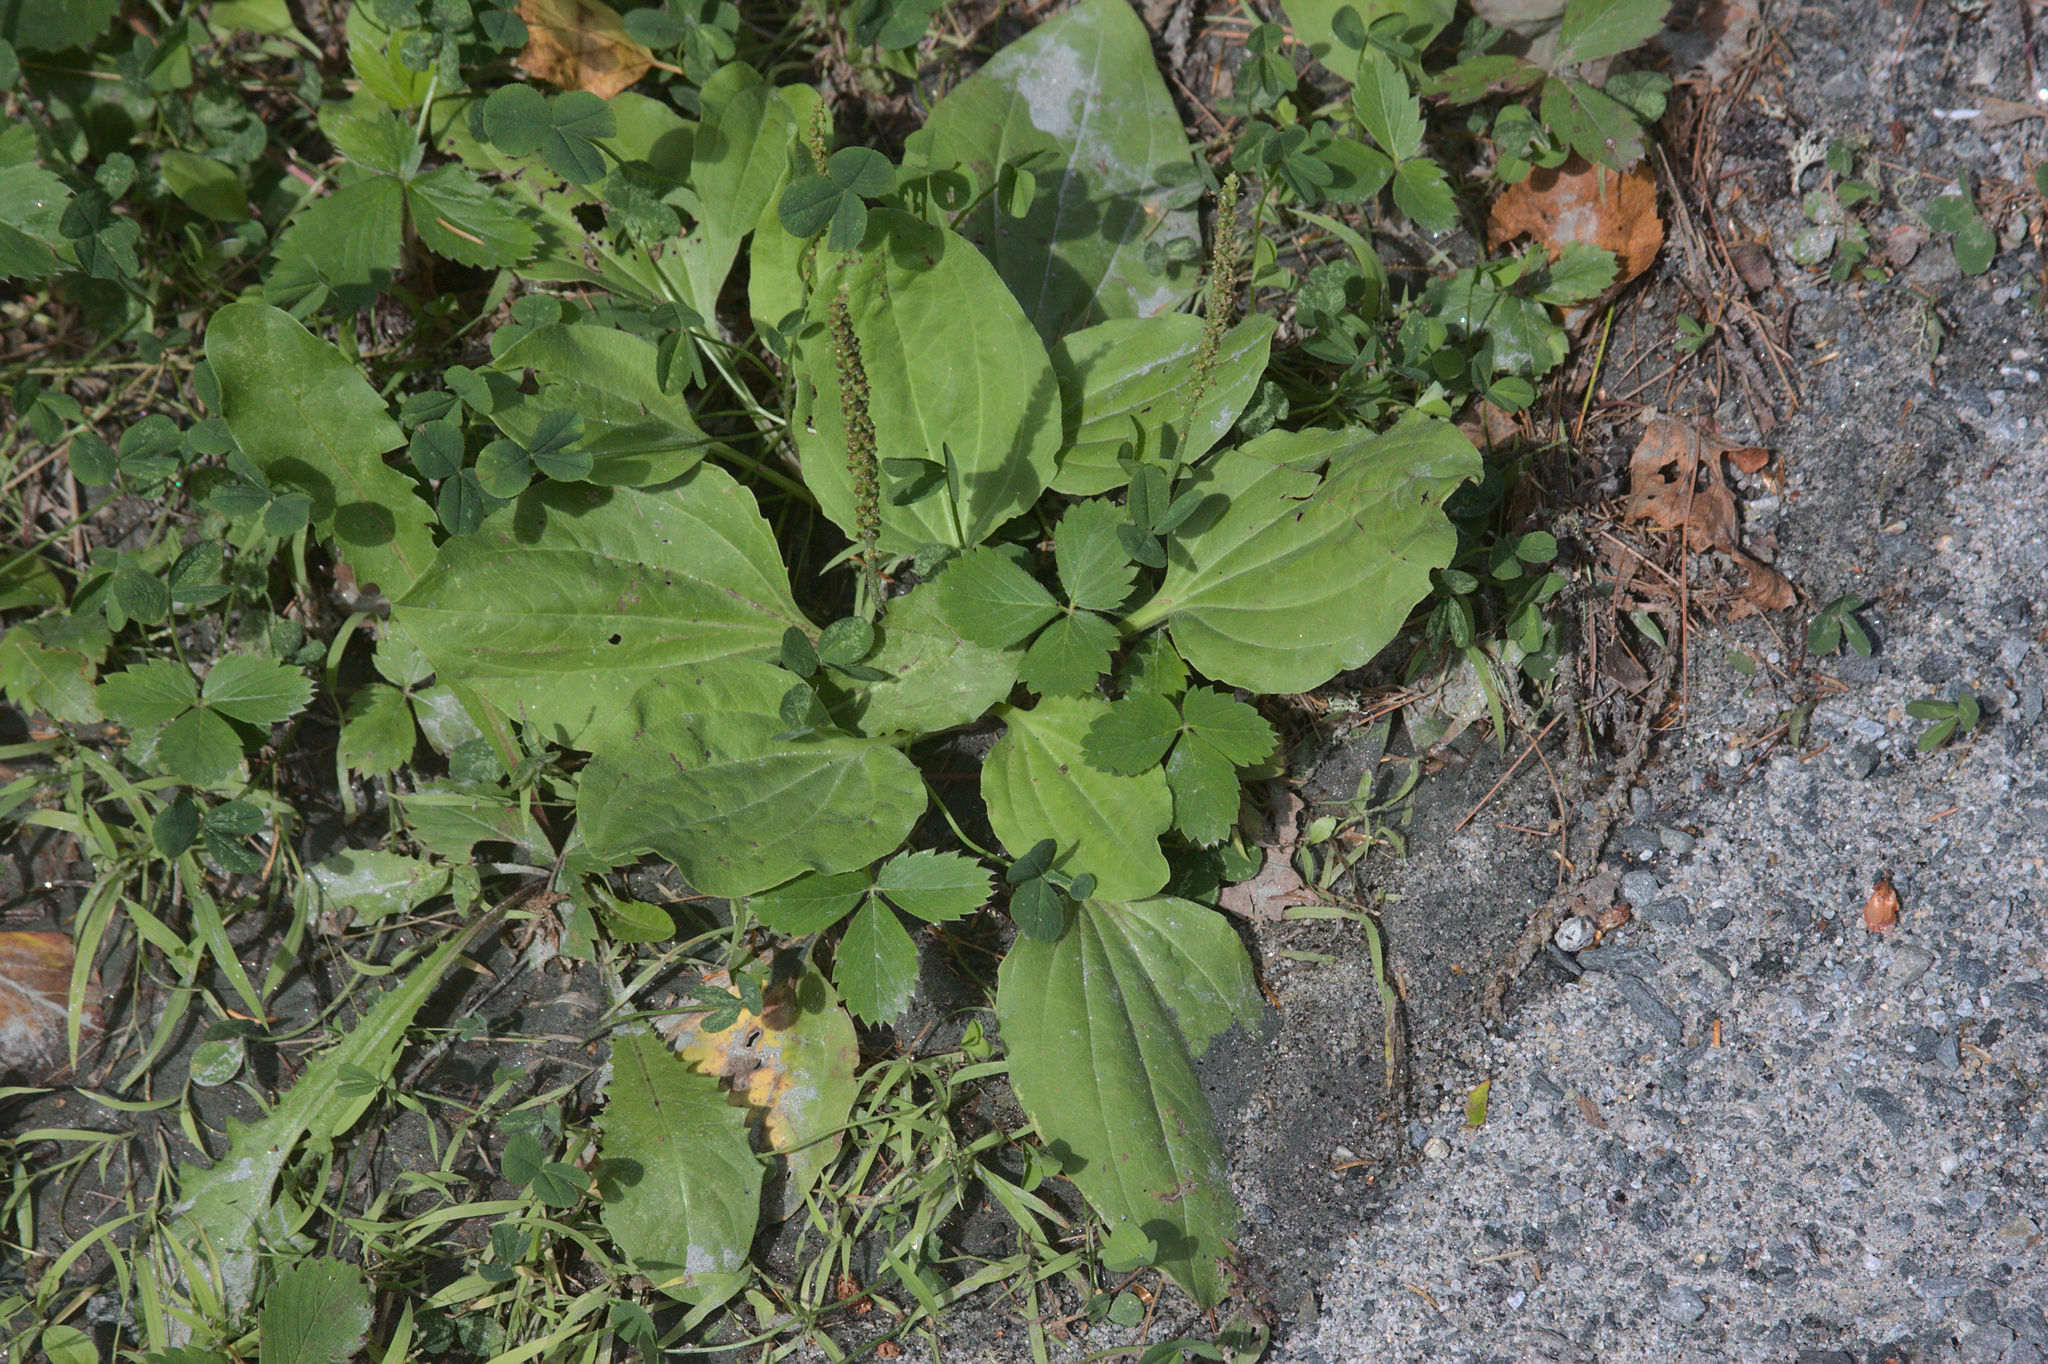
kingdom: Plantae
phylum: Tracheophyta
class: Magnoliopsida
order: Lamiales
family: Plantaginaceae
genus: Plantago
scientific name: Plantago major
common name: Common plantain
